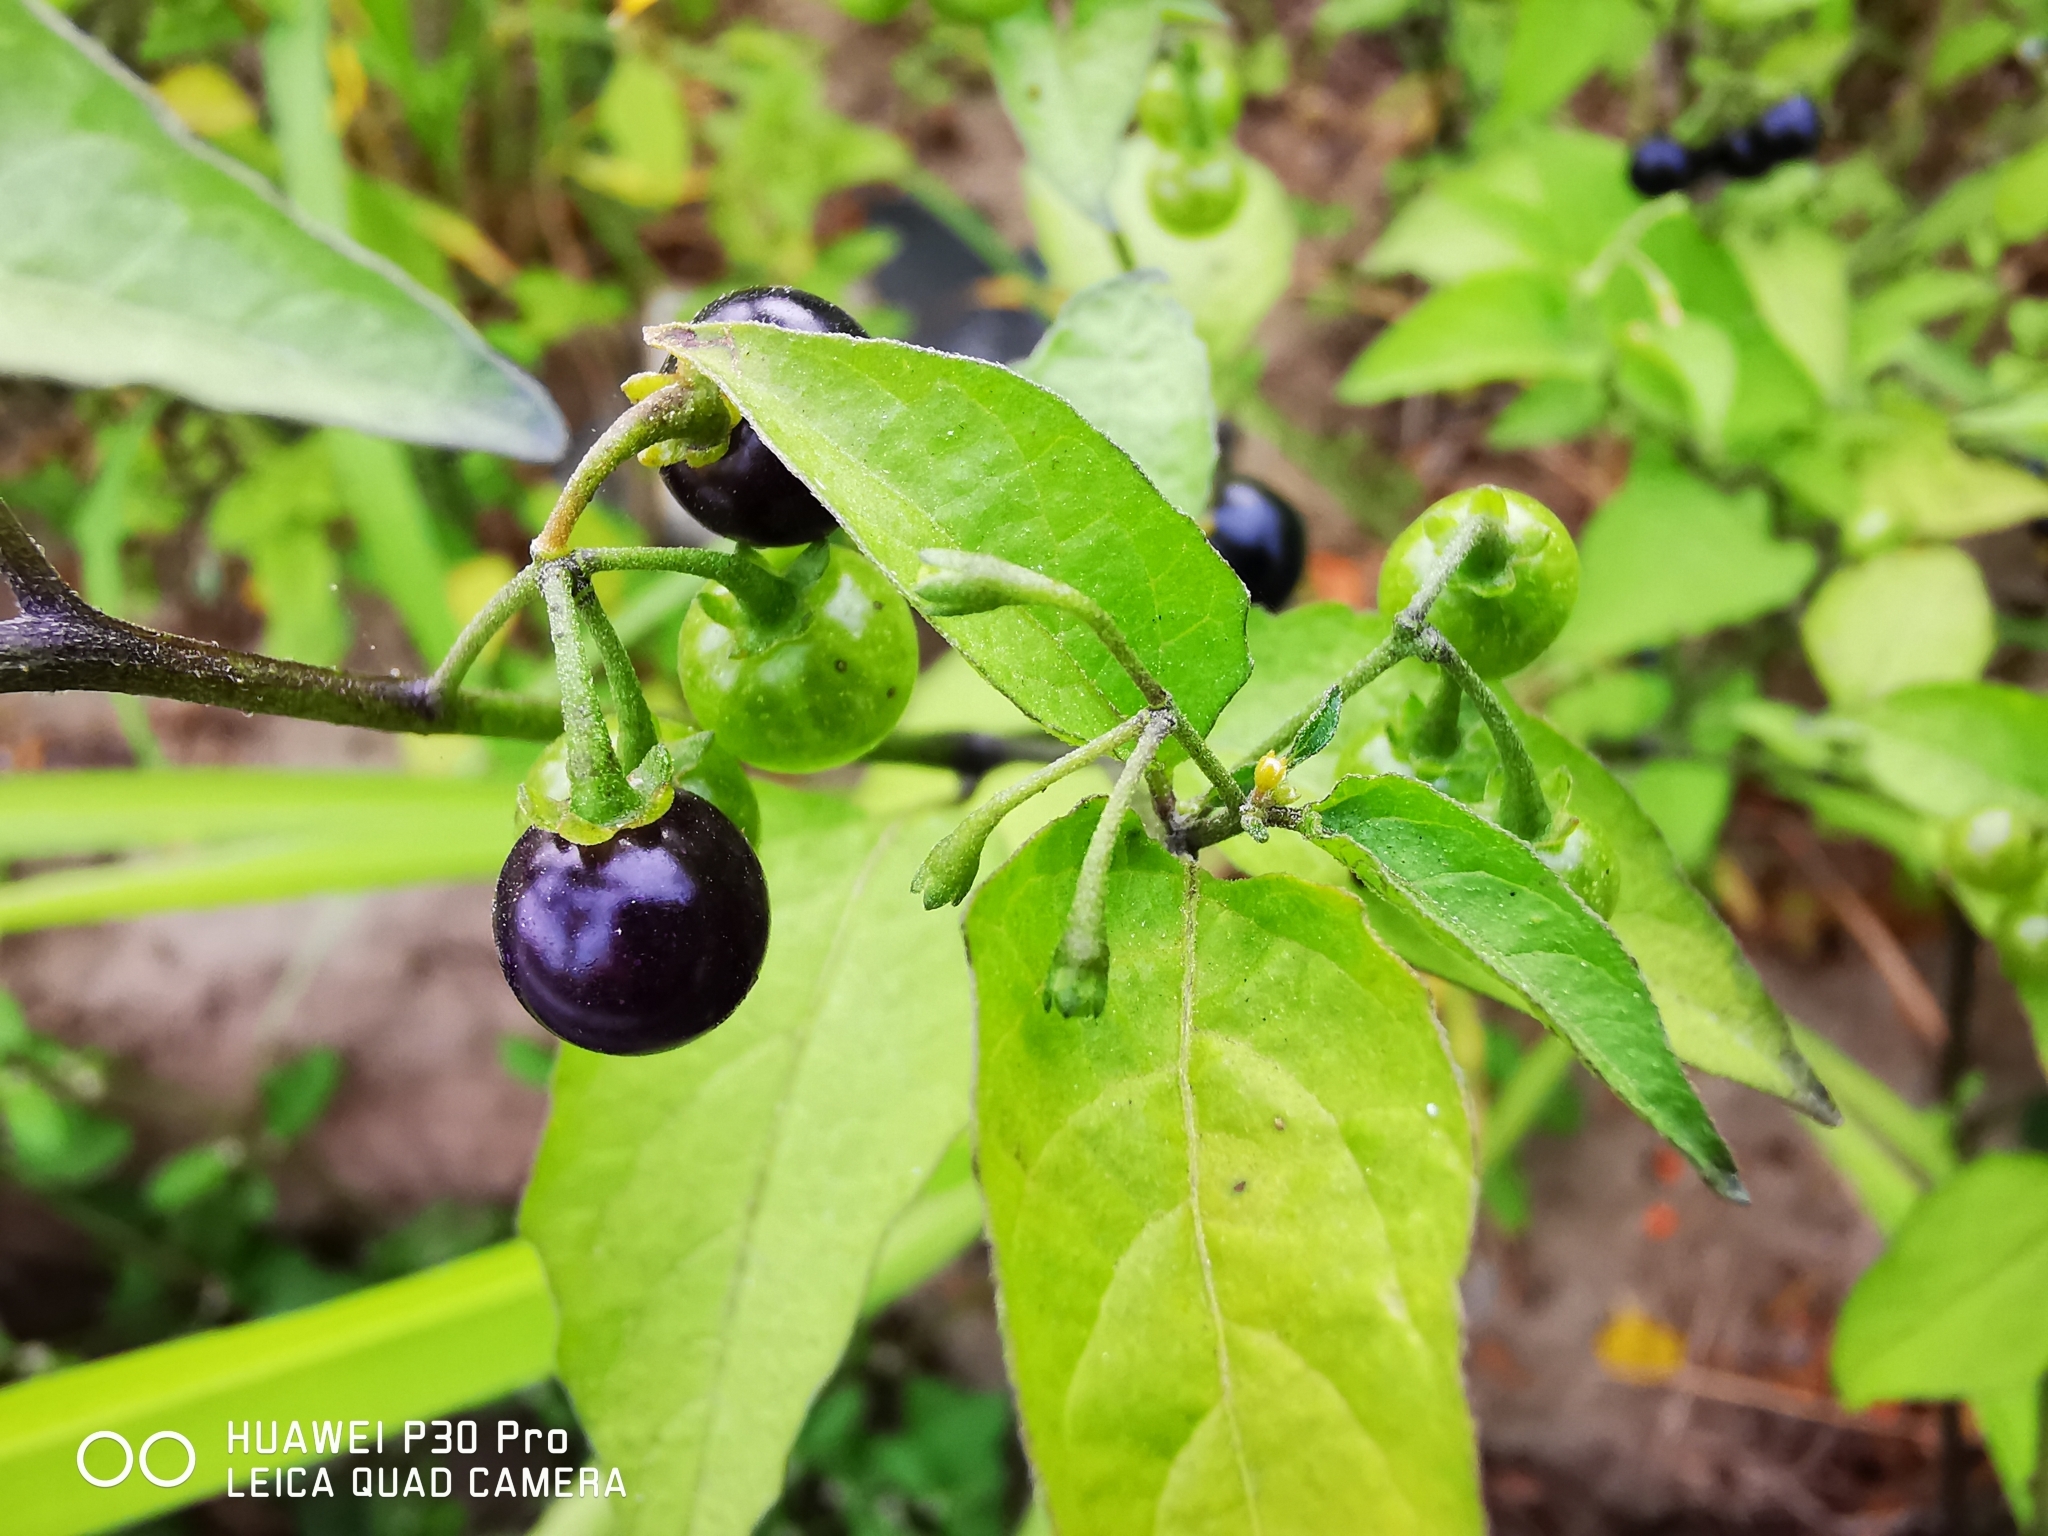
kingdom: Plantae
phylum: Tracheophyta
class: Magnoliopsida
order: Solanales
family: Solanaceae
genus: Solanum
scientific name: Solanum americanum
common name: American black nightshade
